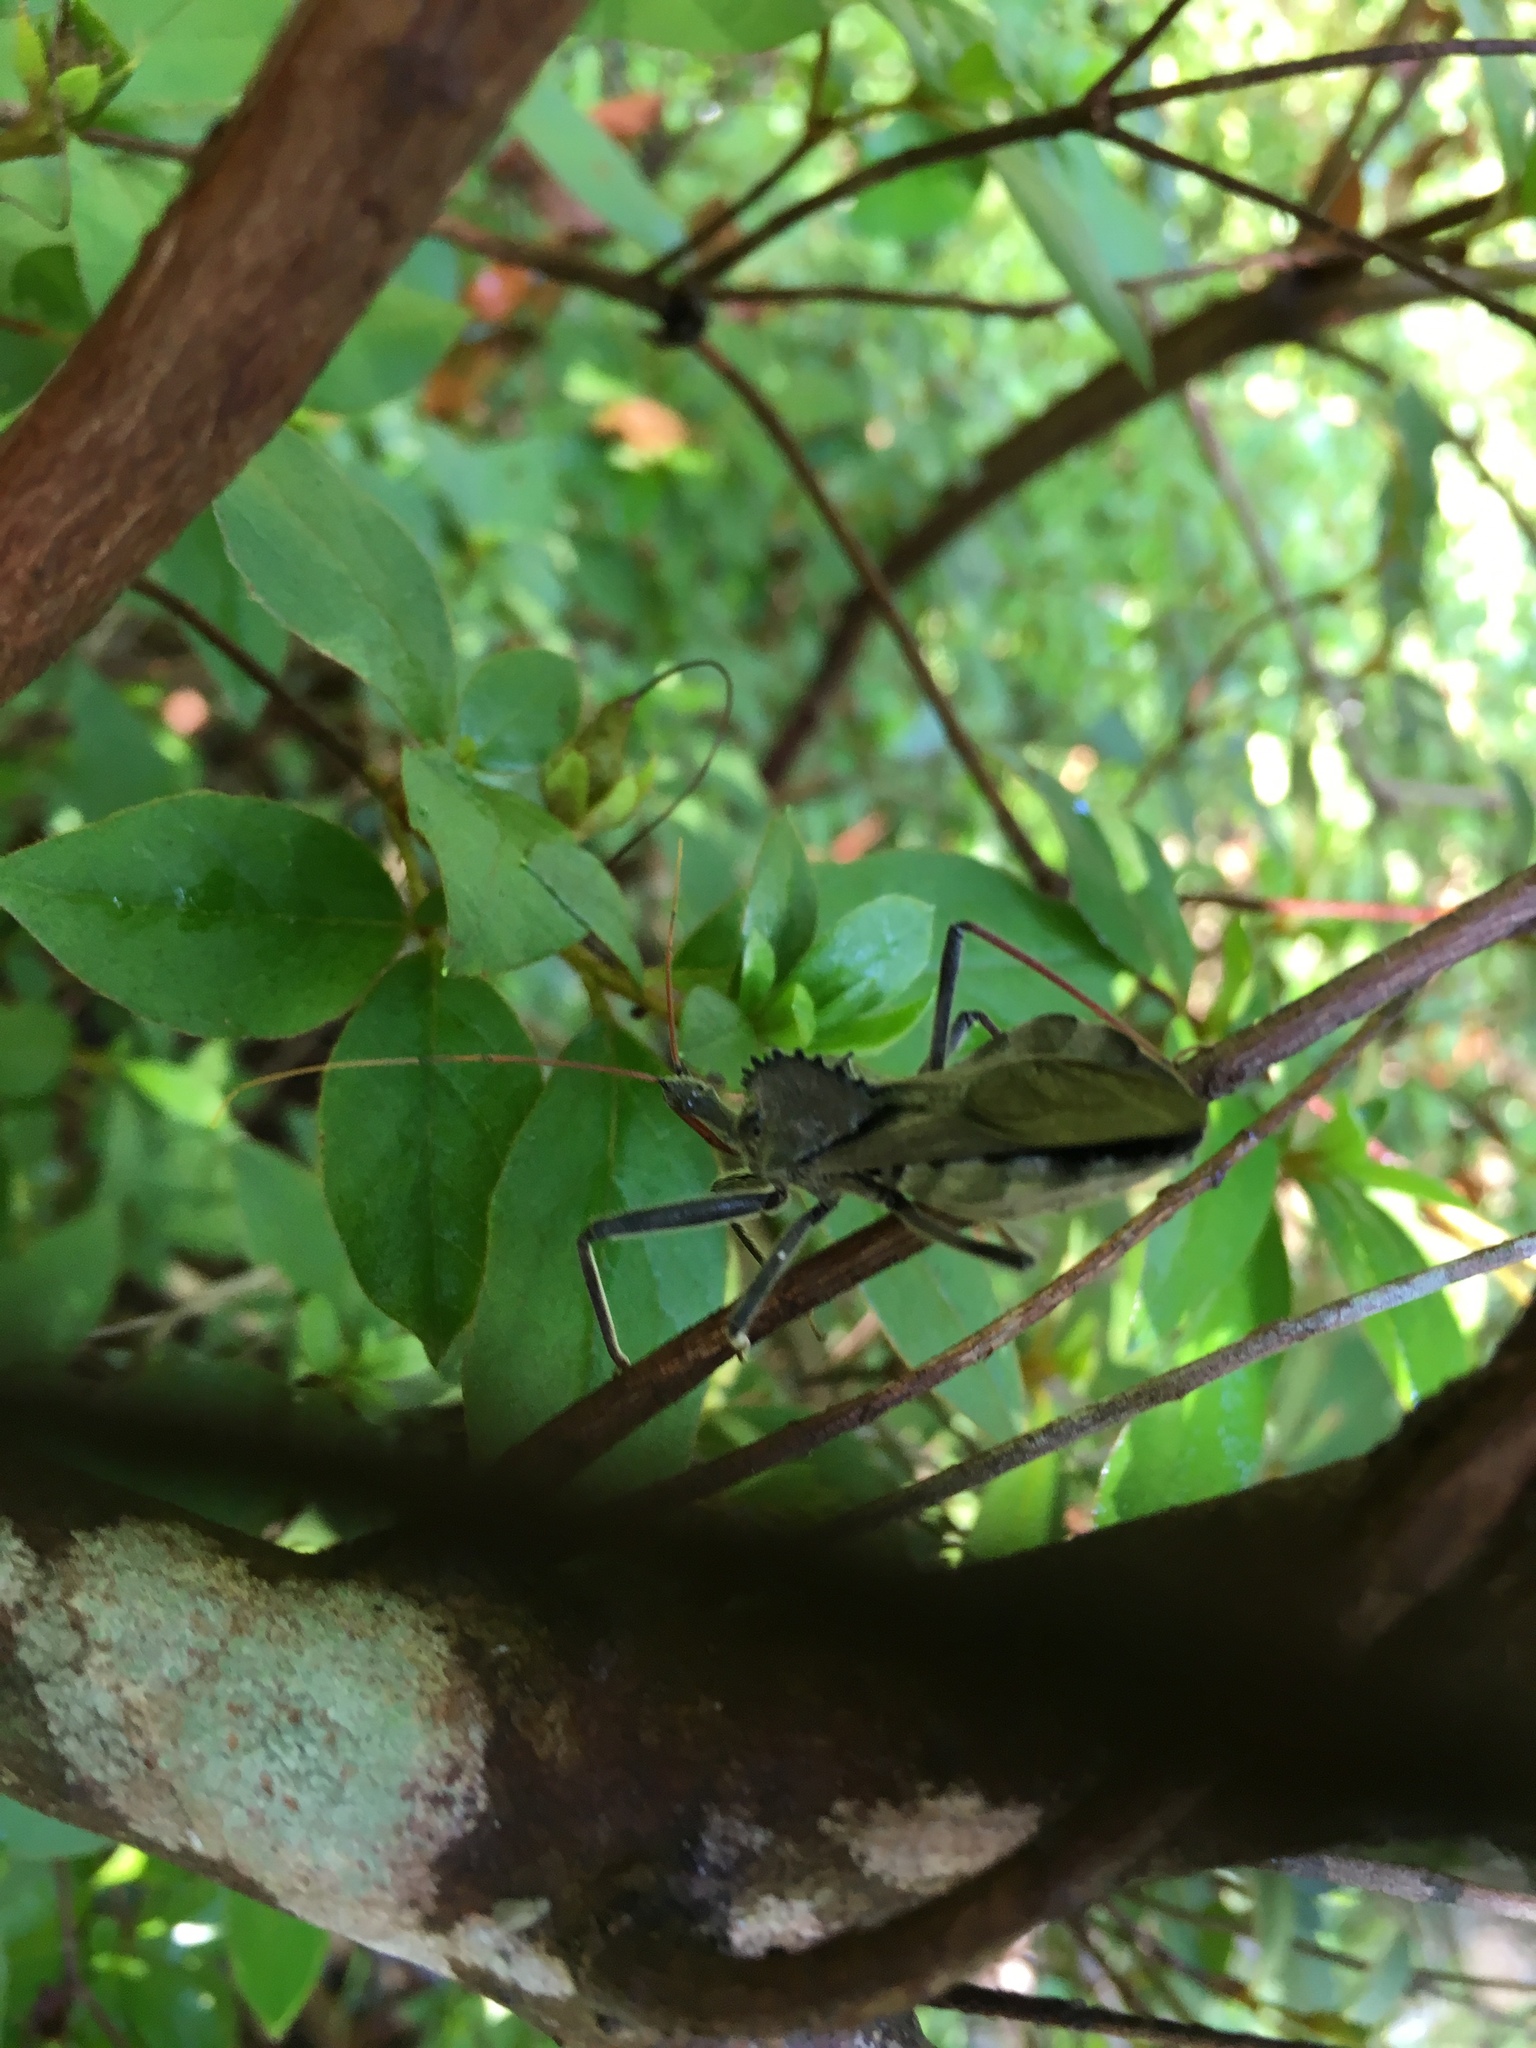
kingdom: Animalia
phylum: Arthropoda
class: Insecta
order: Hemiptera
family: Reduviidae
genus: Arilus
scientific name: Arilus cristatus
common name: North american wheel bug
